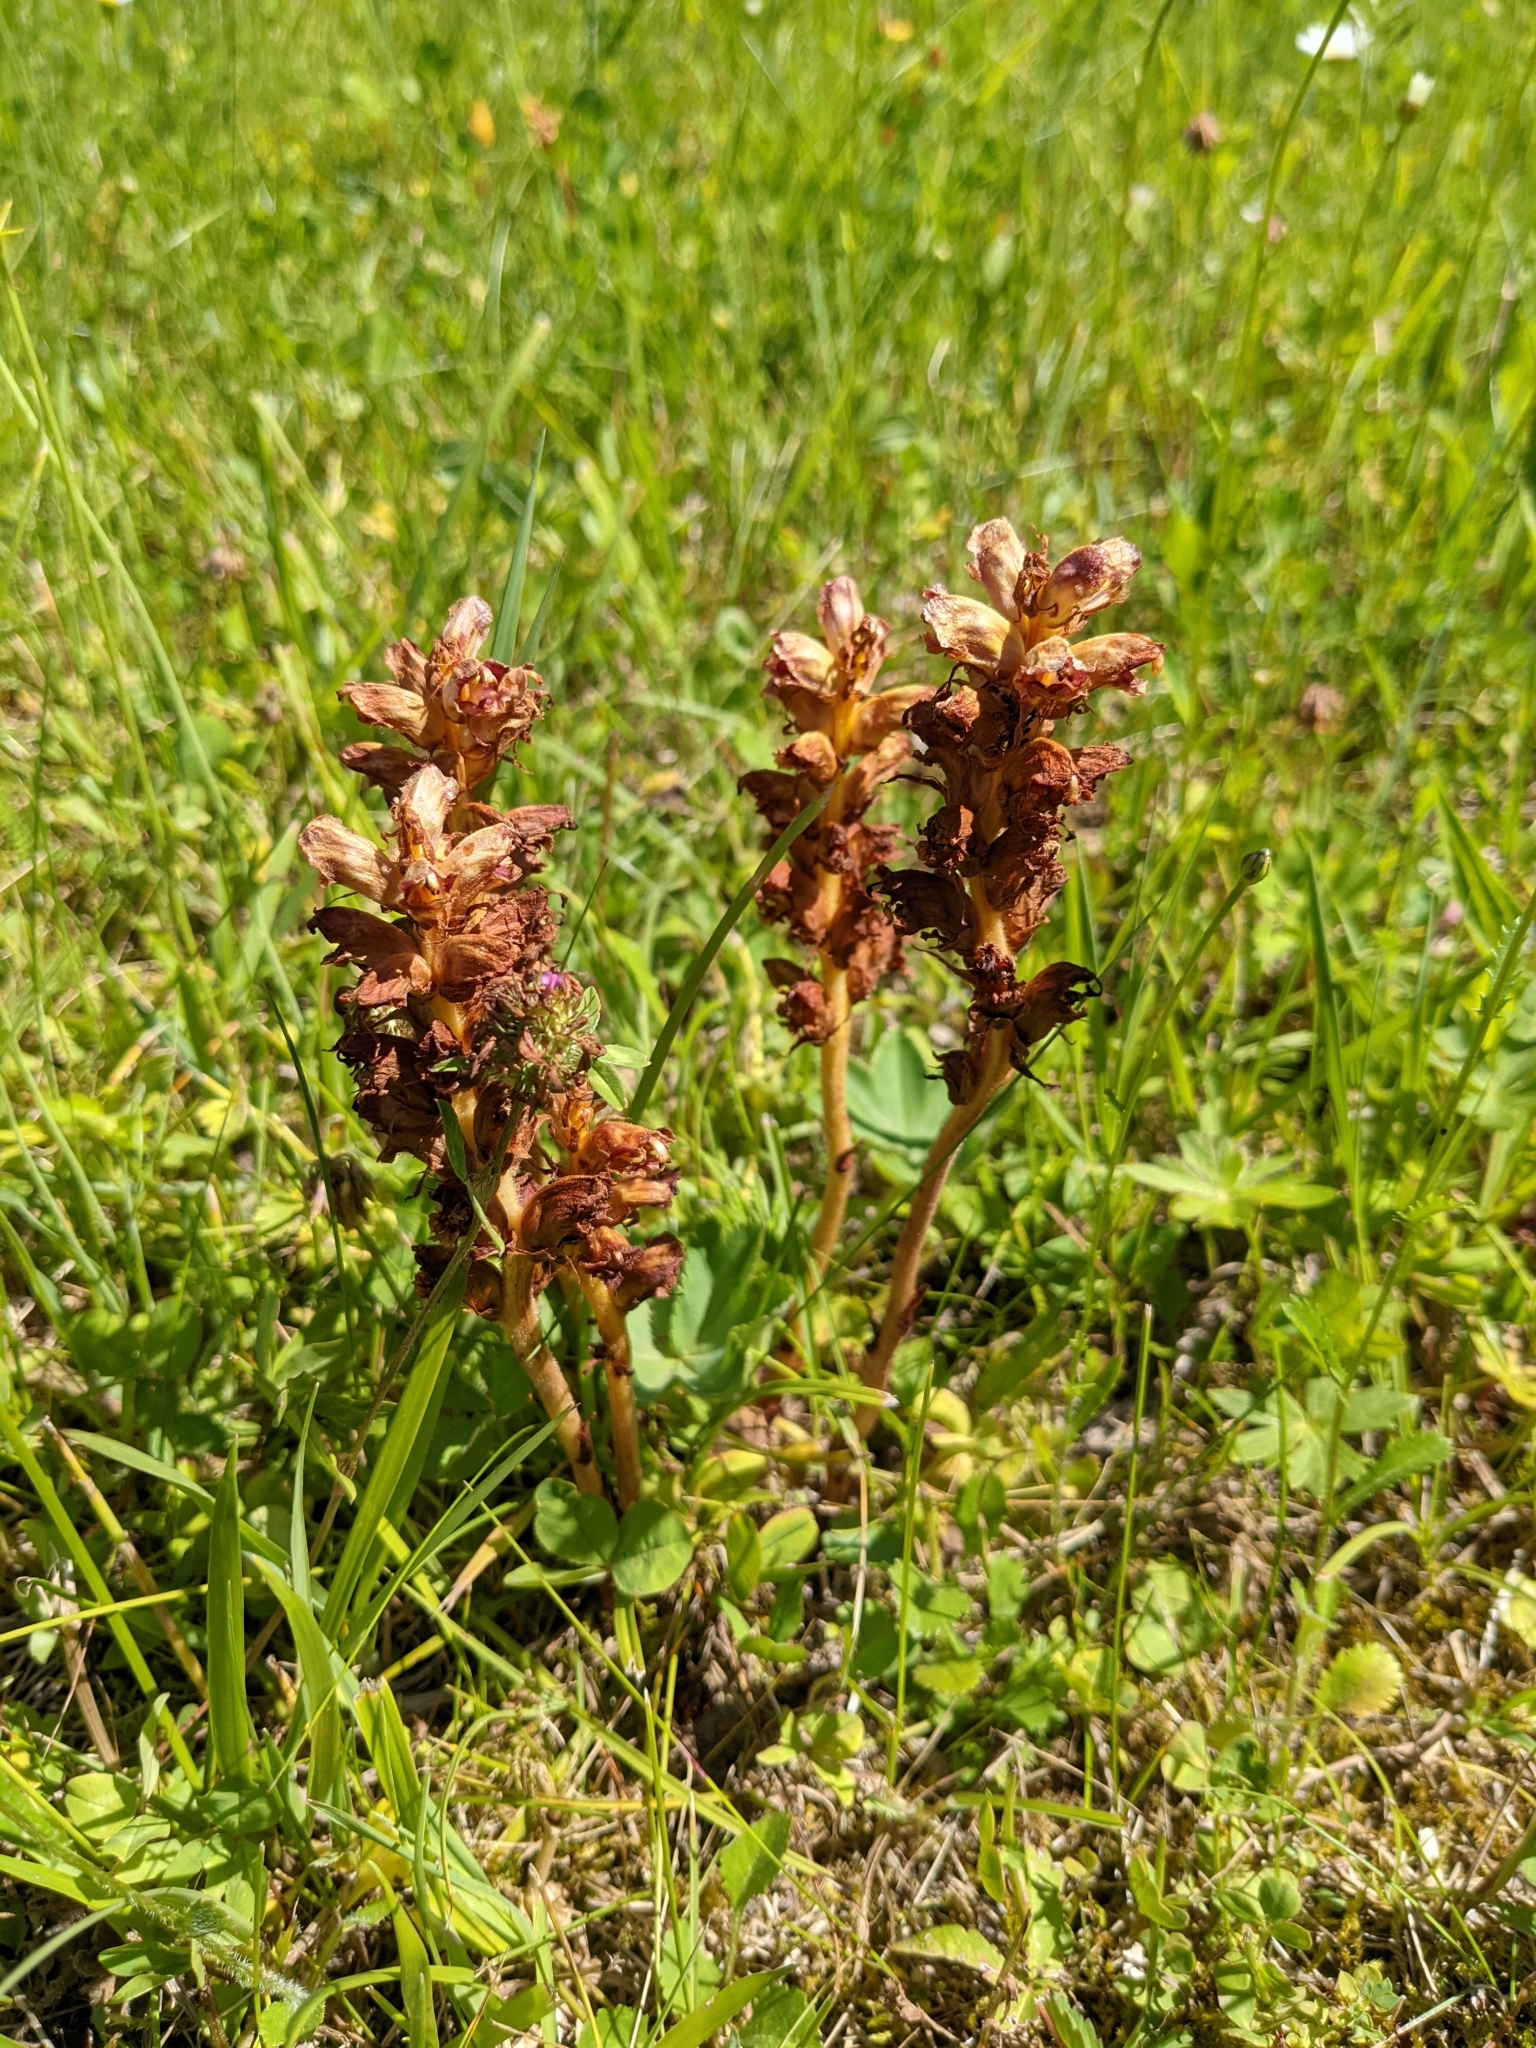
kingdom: Plantae
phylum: Tracheophyta
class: Magnoliopsida
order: Lamiales
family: Orobanchaceae
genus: Orobanche
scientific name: Orobanche gracilis
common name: Slender broomrape
